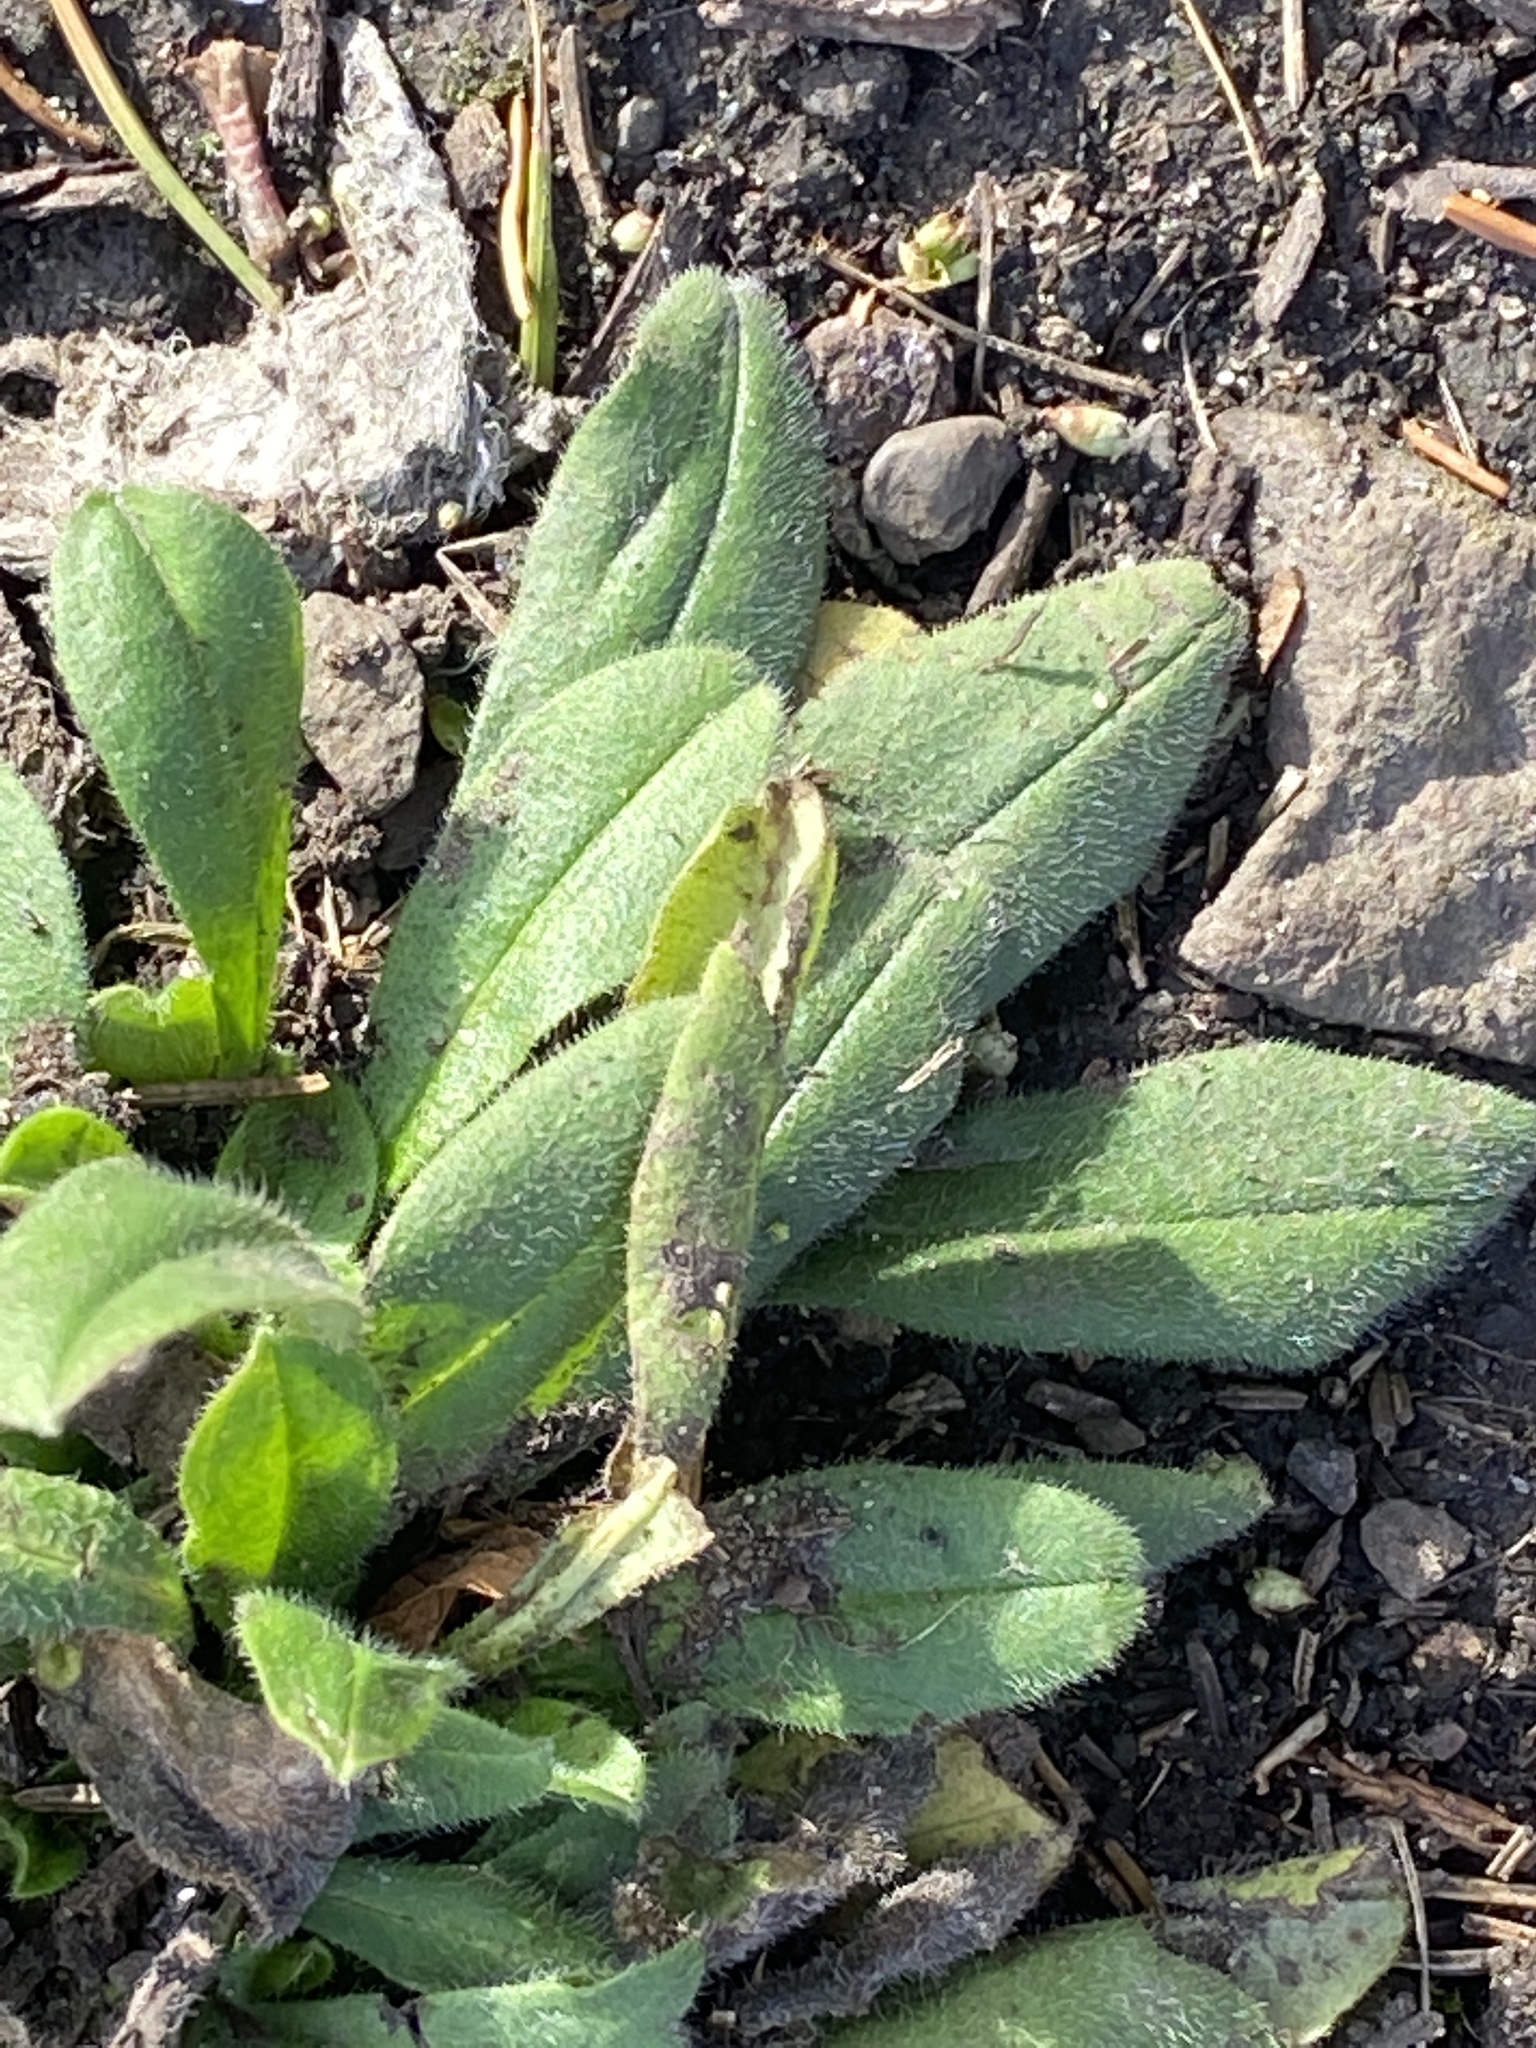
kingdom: Plantae
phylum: Tracheophyta
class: Magnoliopsida
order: Asterales
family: Asteraceae
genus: Rudbeckia
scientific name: Rudbeckia hirta
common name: Black-eyed-susan
